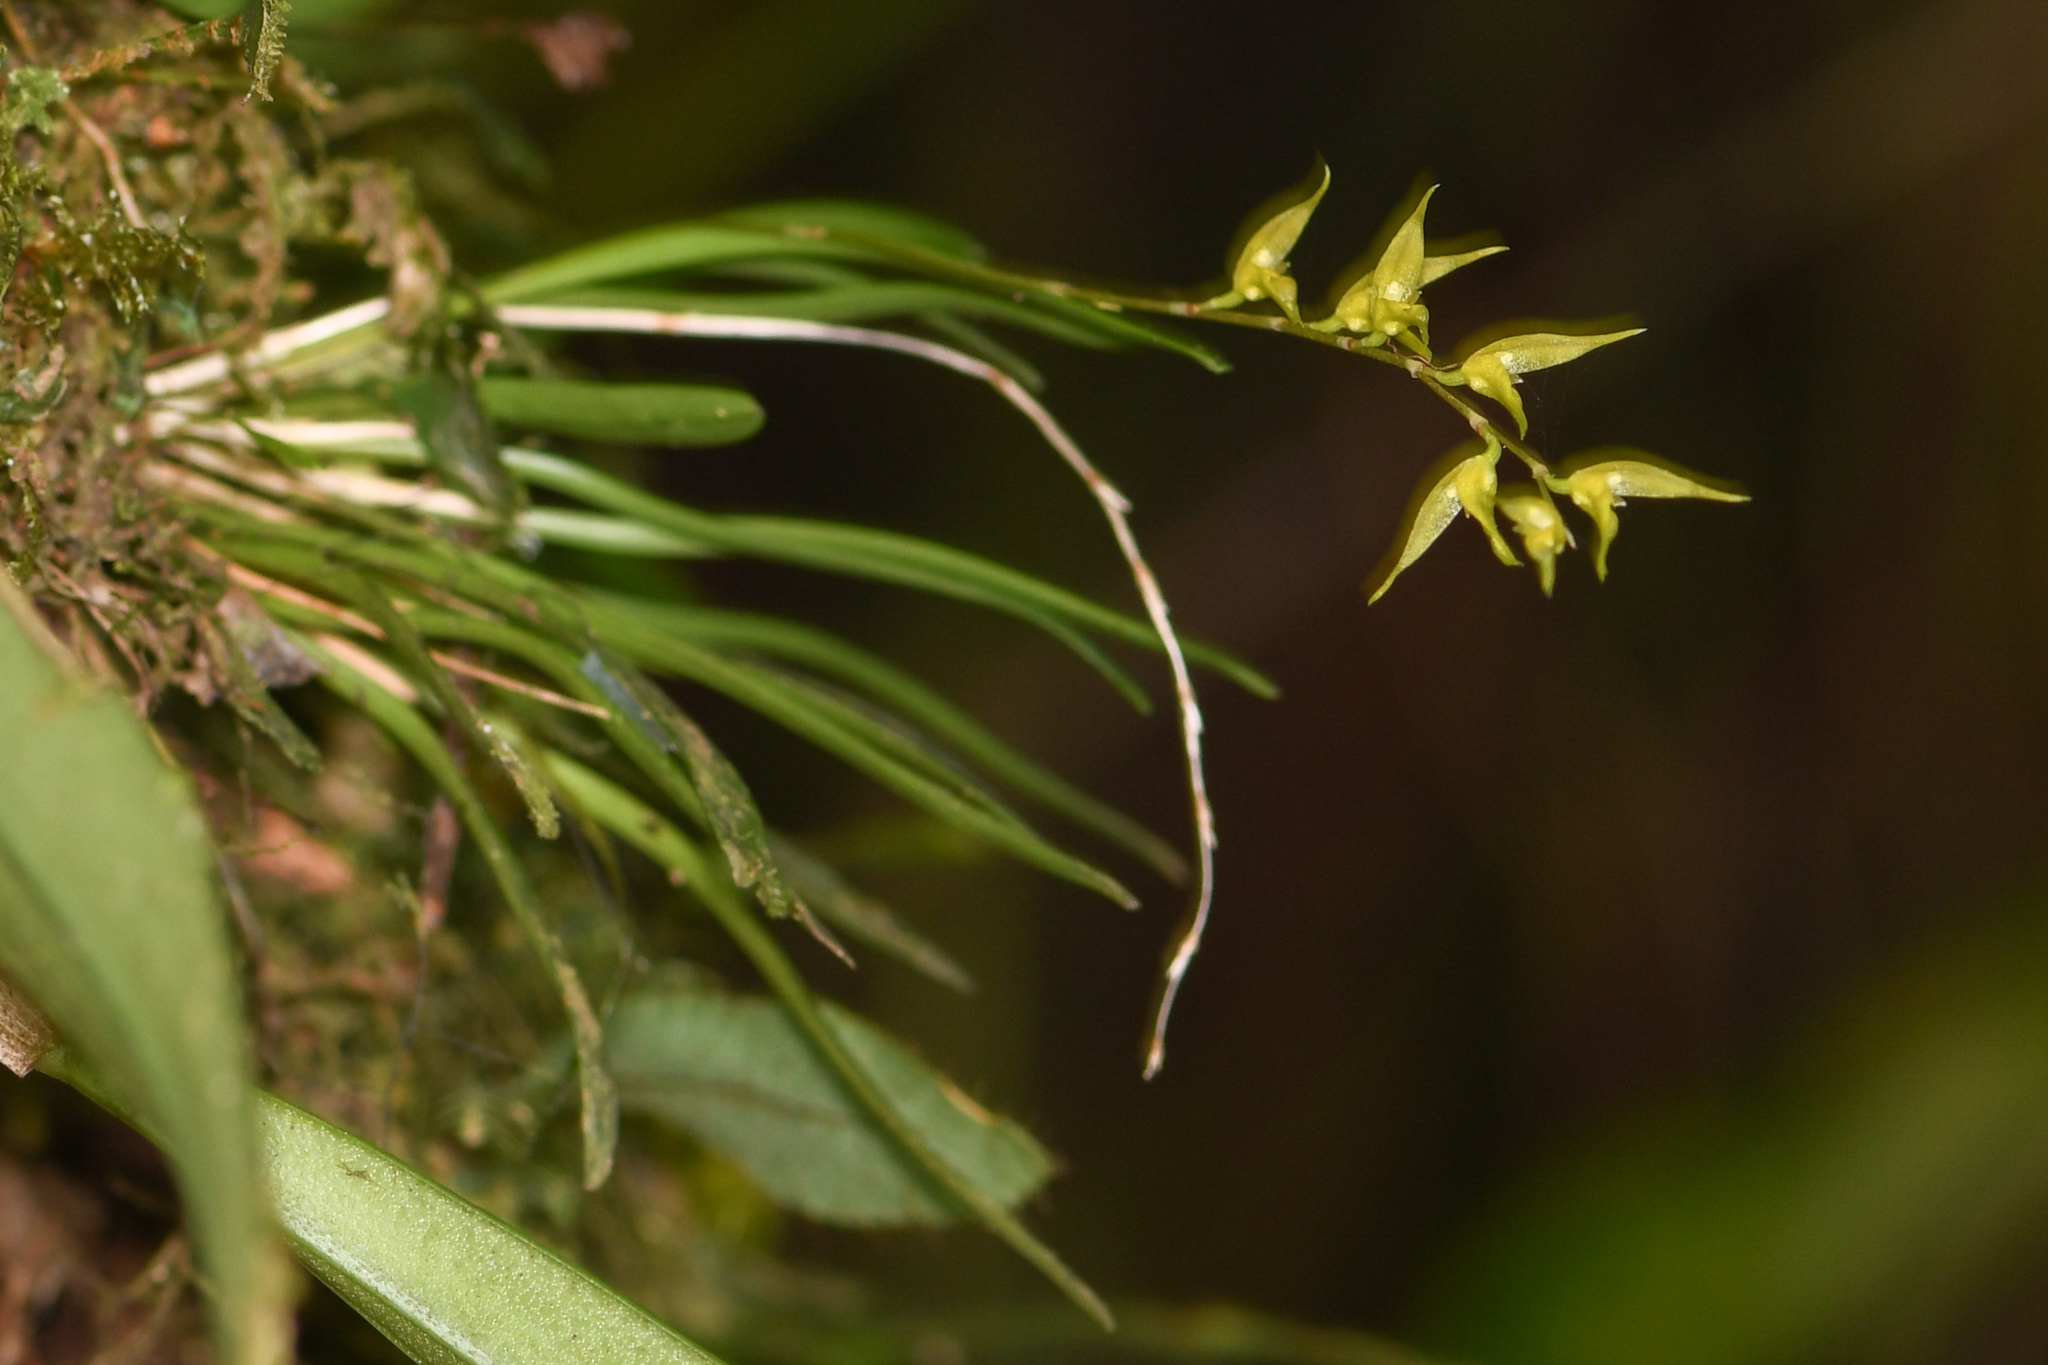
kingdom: Plantae
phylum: Tracheophyta
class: Liliopsida
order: Asparagales
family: Orchidaceae
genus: Specklinia
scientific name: Specklinia costaricensis
